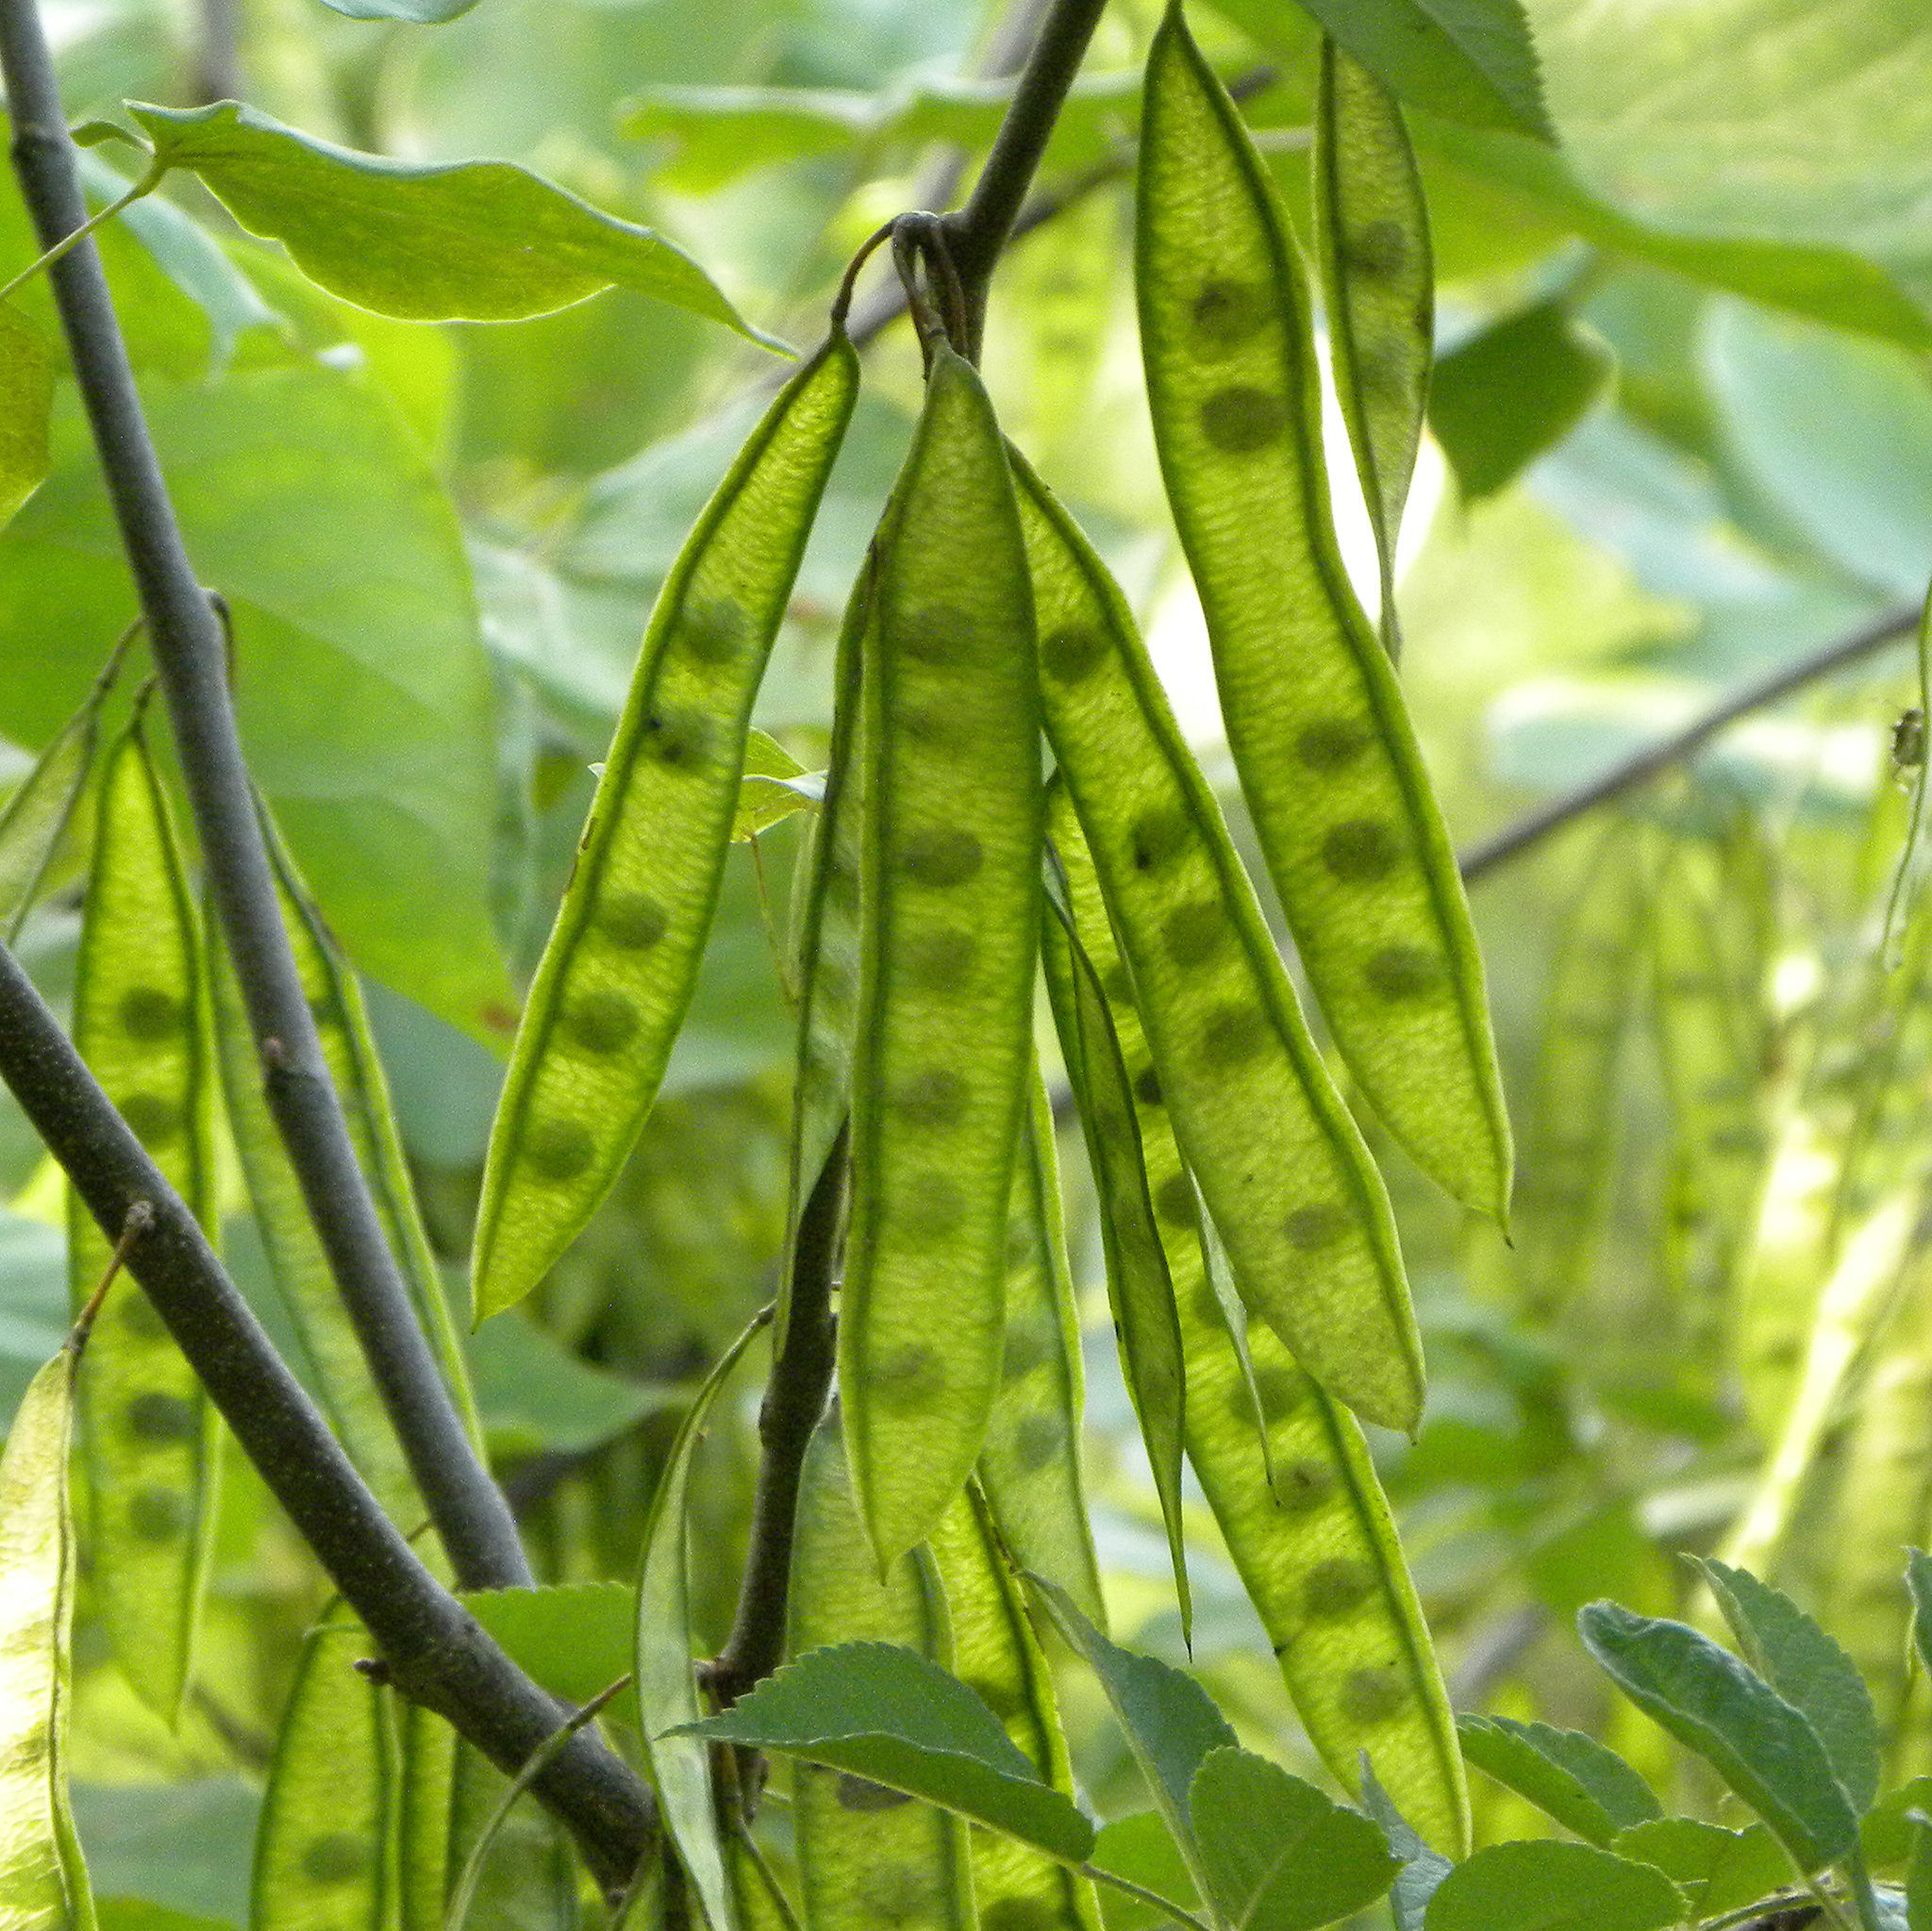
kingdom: Plantae
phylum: Tracheophyta
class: Magnoliopsida
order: Fabales
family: Fabaceae
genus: Cercis
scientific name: Cercis canadensis
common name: Eastern redbud
